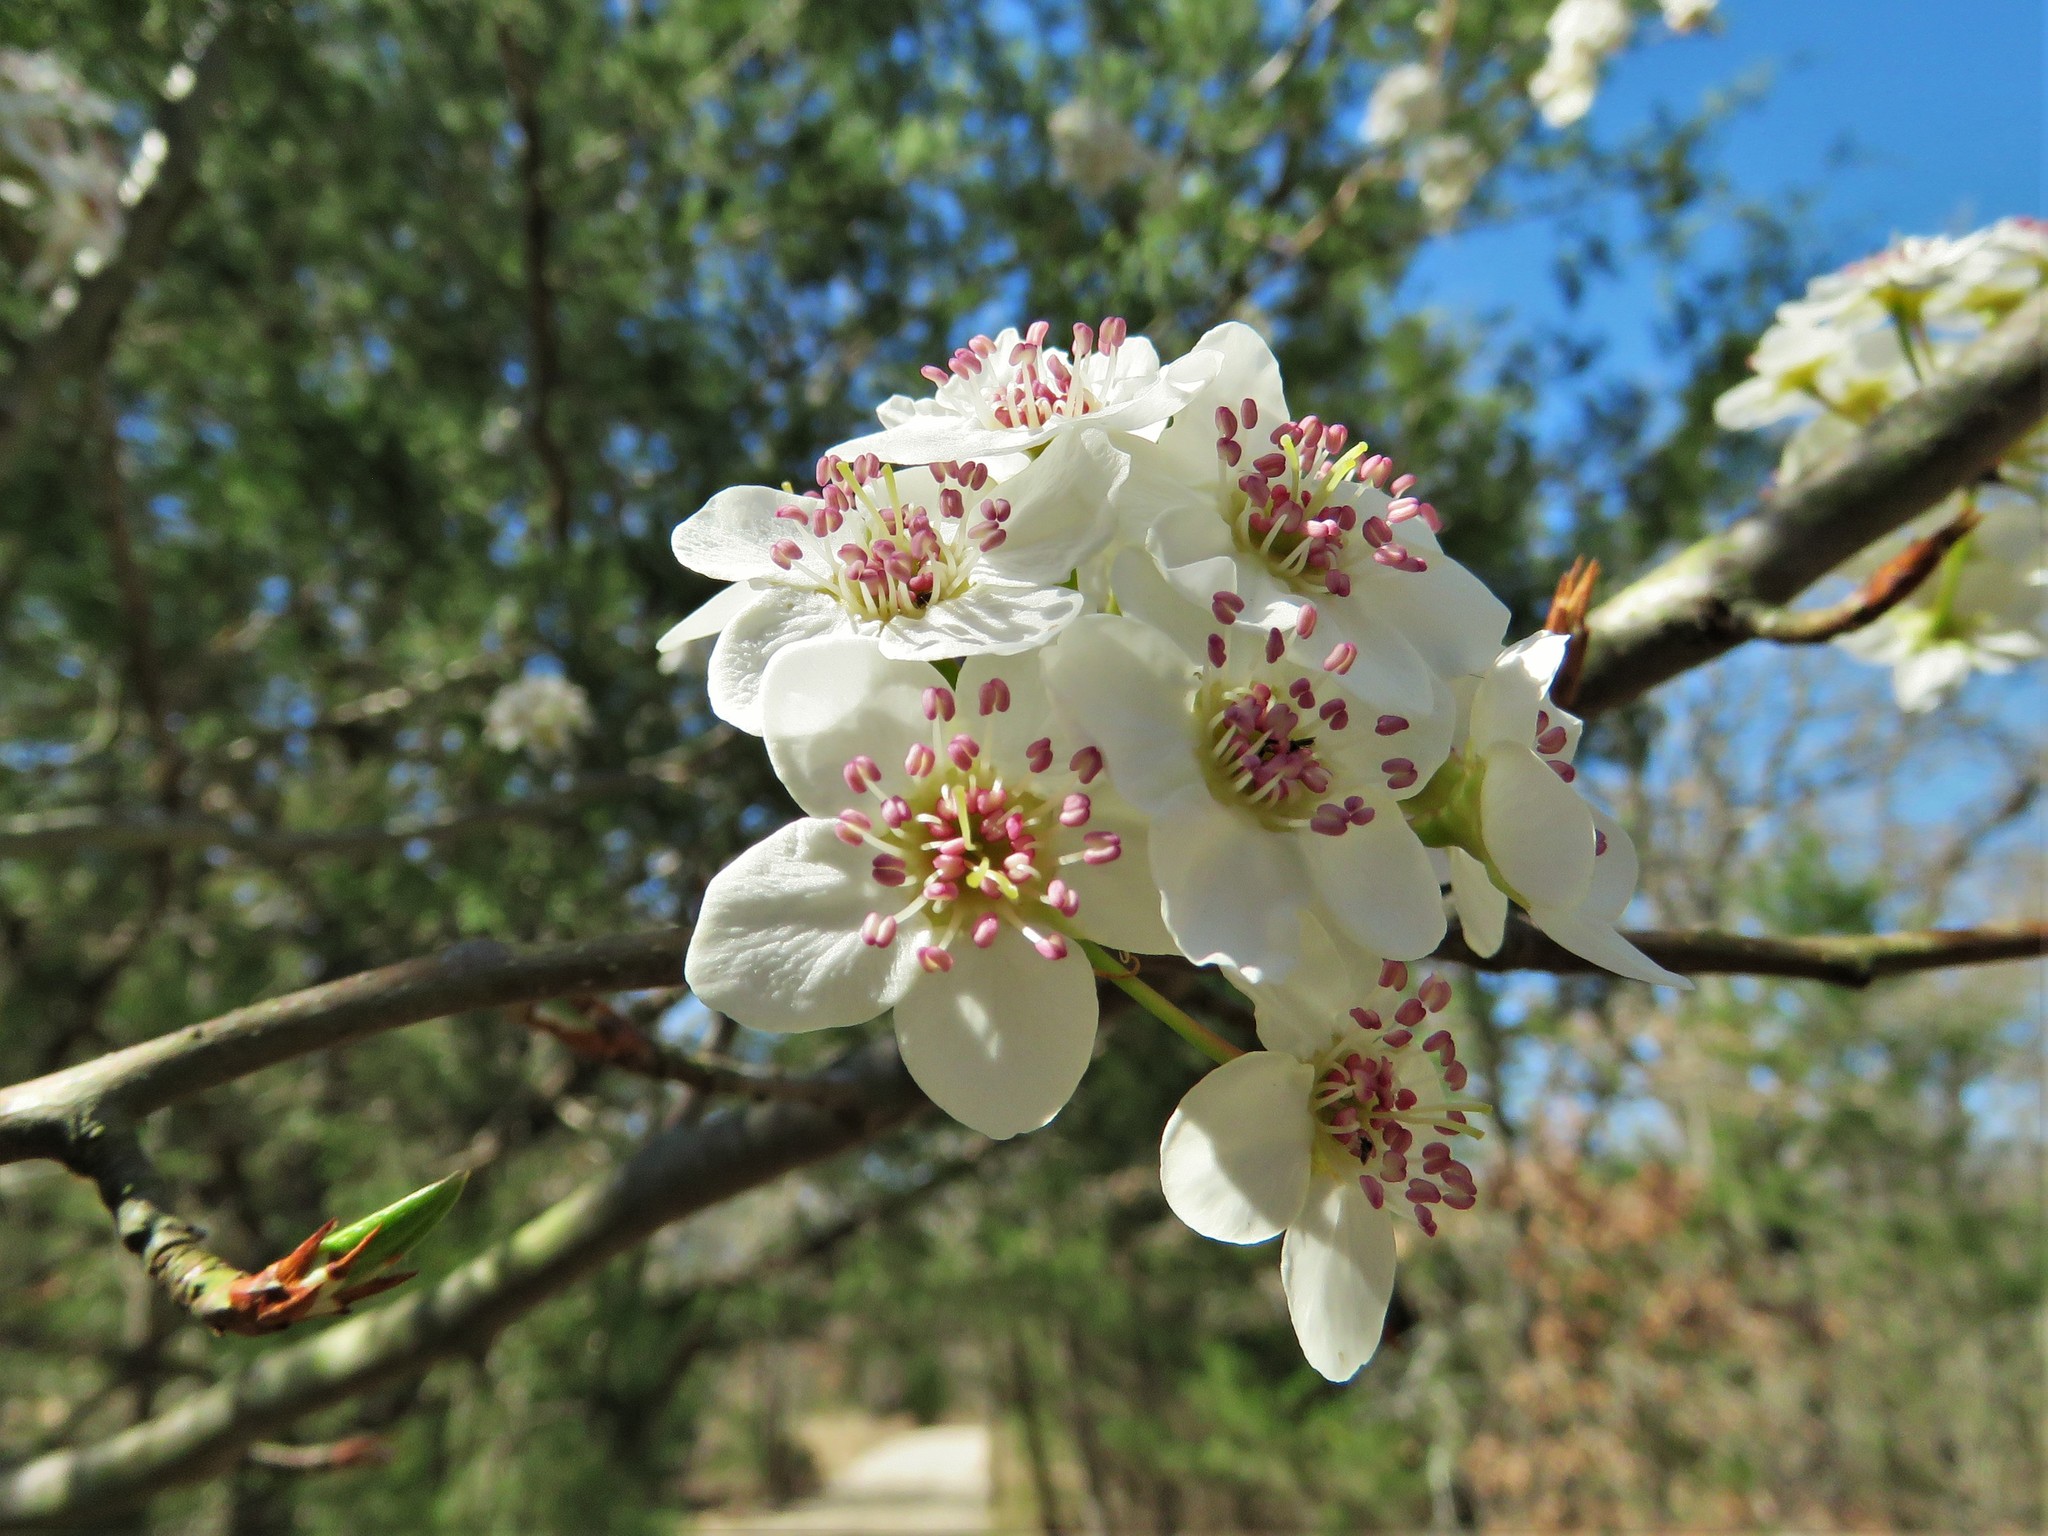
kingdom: Plantae
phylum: Tracheophyta
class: Magnoliopsida
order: Rosales
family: Rosaceae
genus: Pyrus
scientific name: Pyrus calleryana
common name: Callery pear
